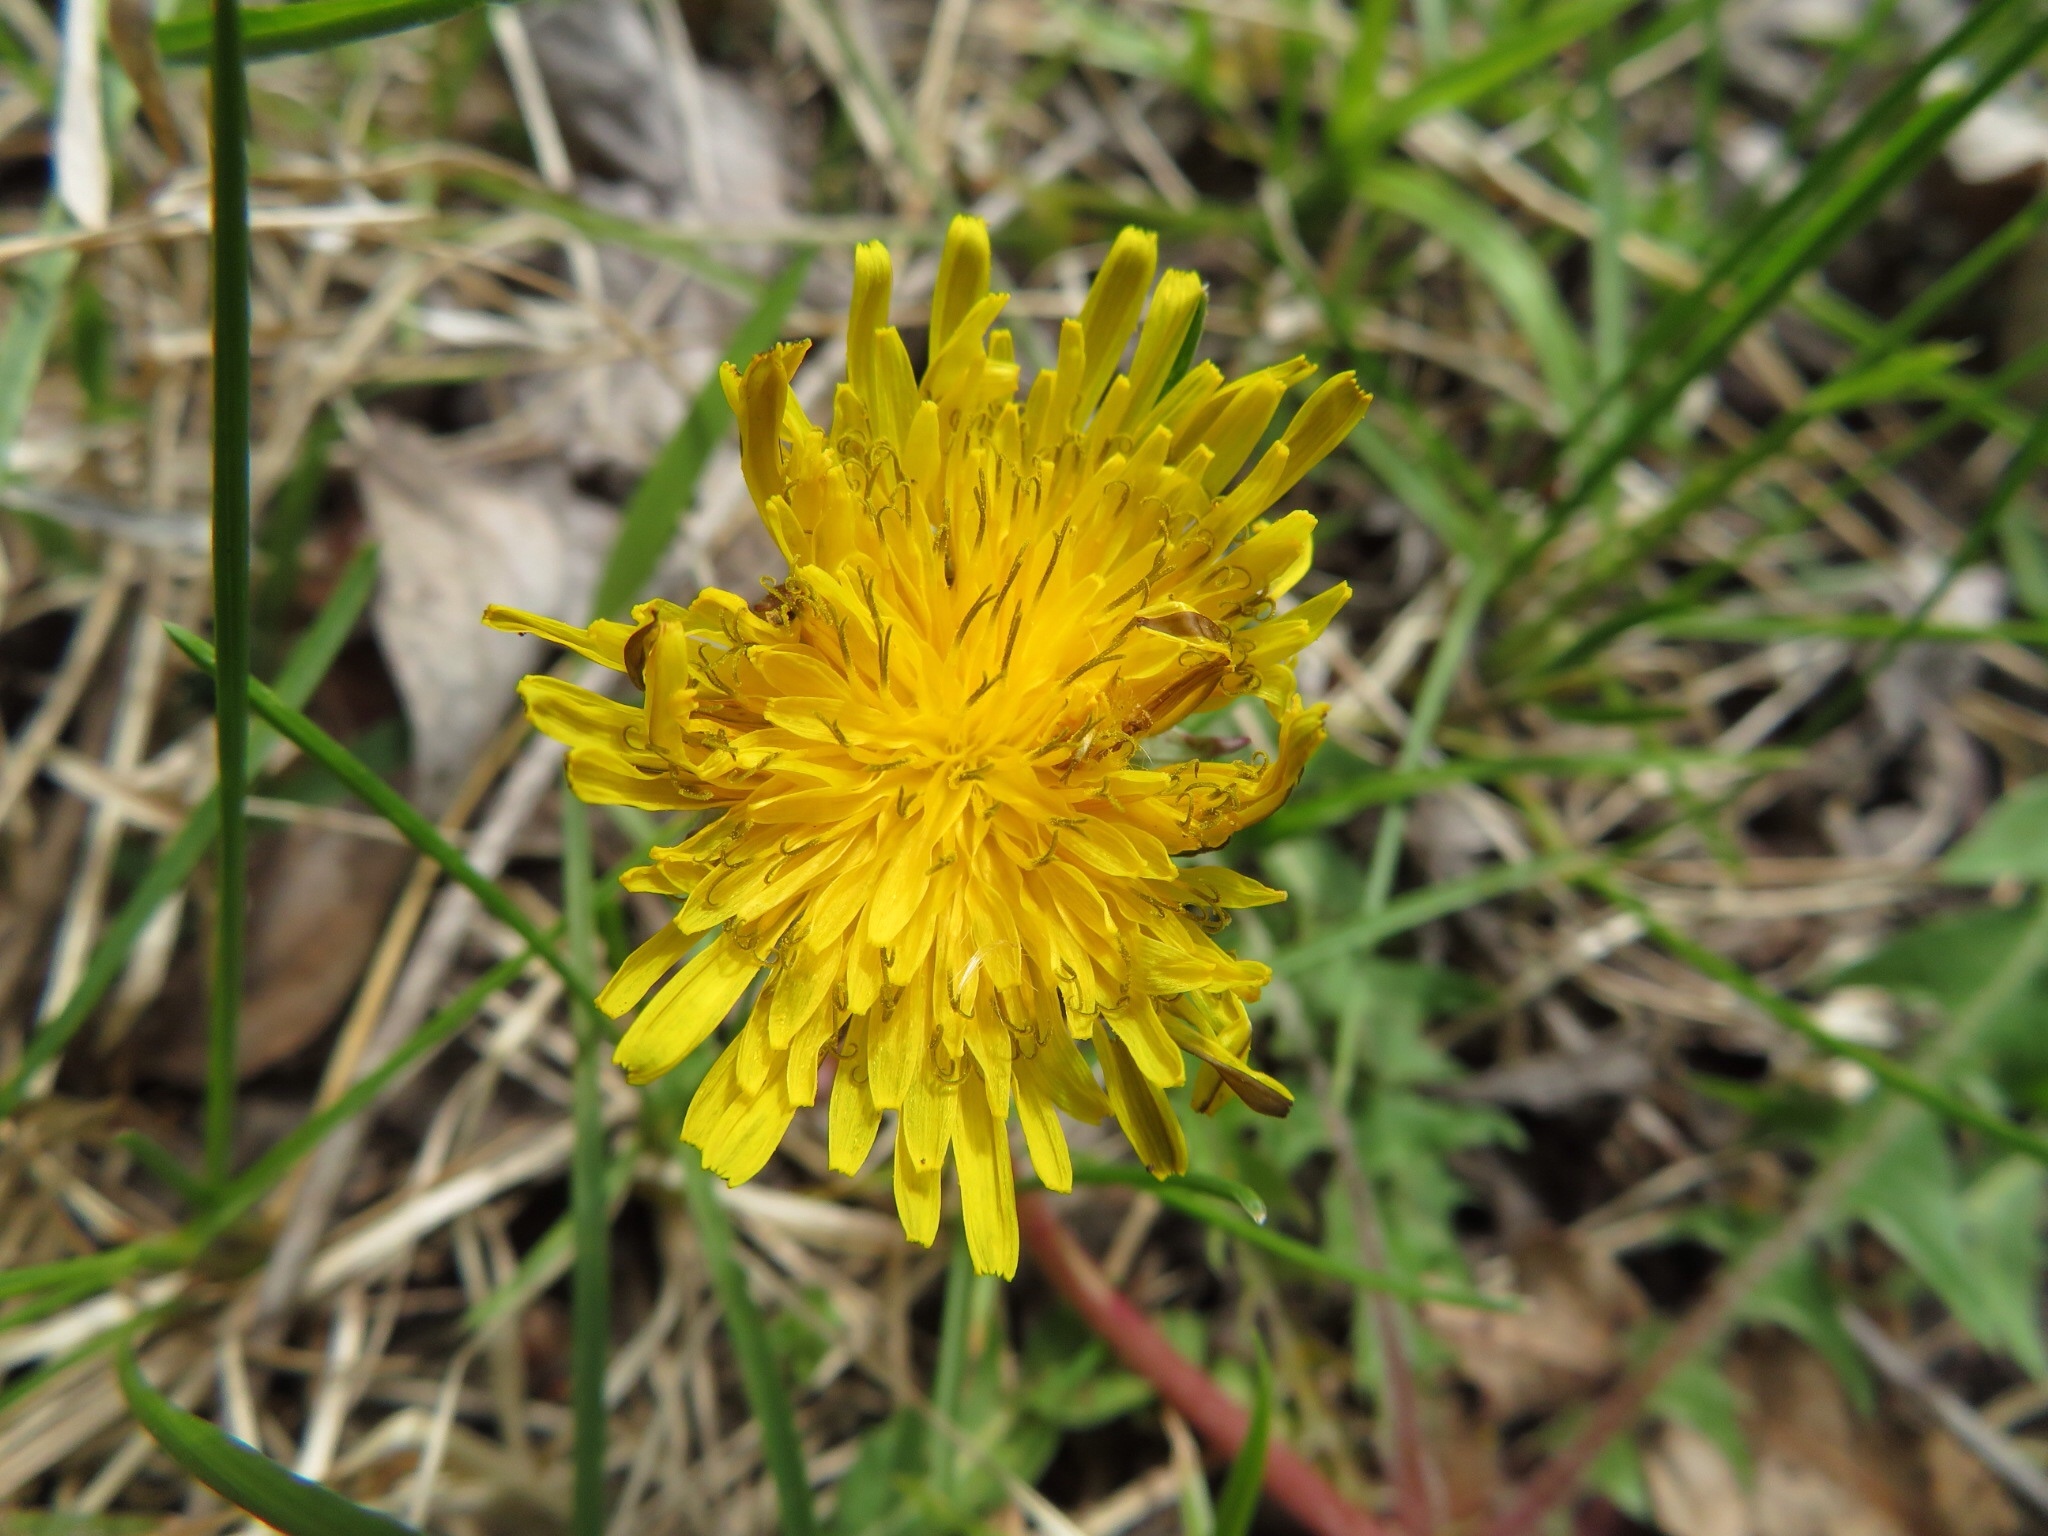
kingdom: Plantae
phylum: Tracheophyta
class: Magnoliopsida
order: Asterales
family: Asteraceae
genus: Taraxacum
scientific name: Taraxacum officinale
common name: Common dandelion
